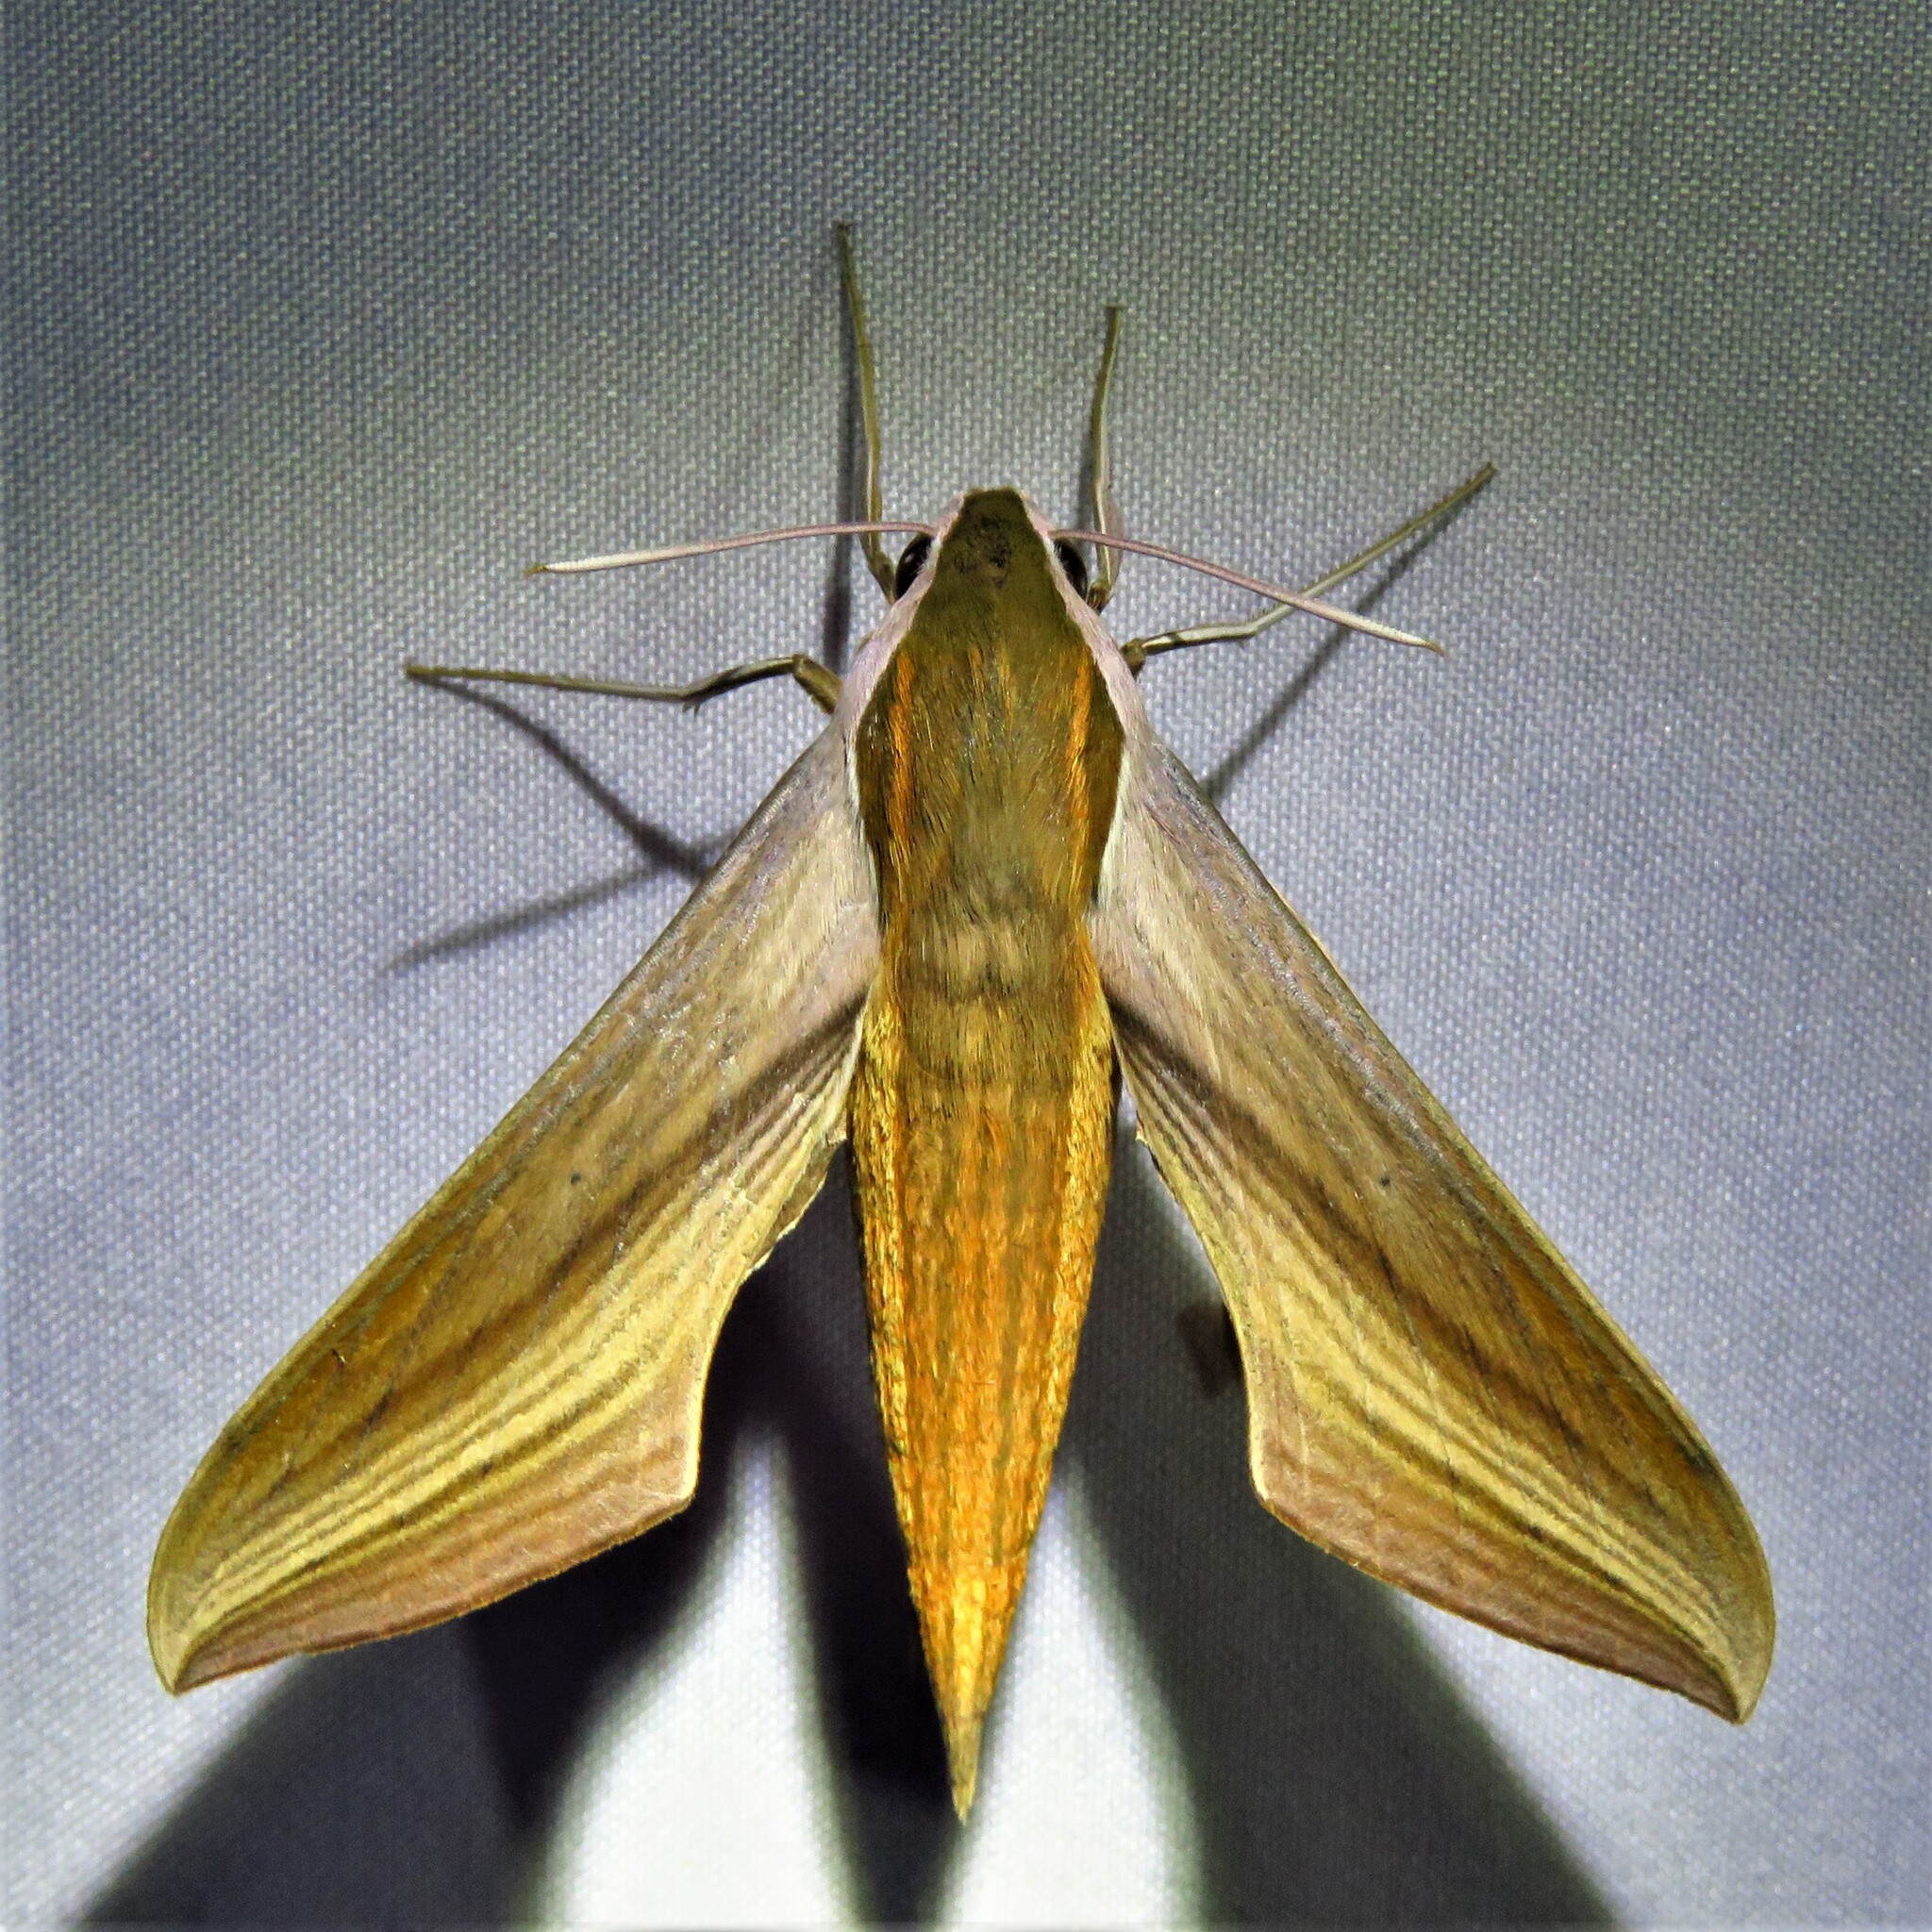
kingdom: Animalia
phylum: Arthropoda
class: Insecta
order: Lepidoptera
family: Sphingidae
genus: Xylophanes
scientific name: Xylophanes tersa
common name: Tersa sphinx
